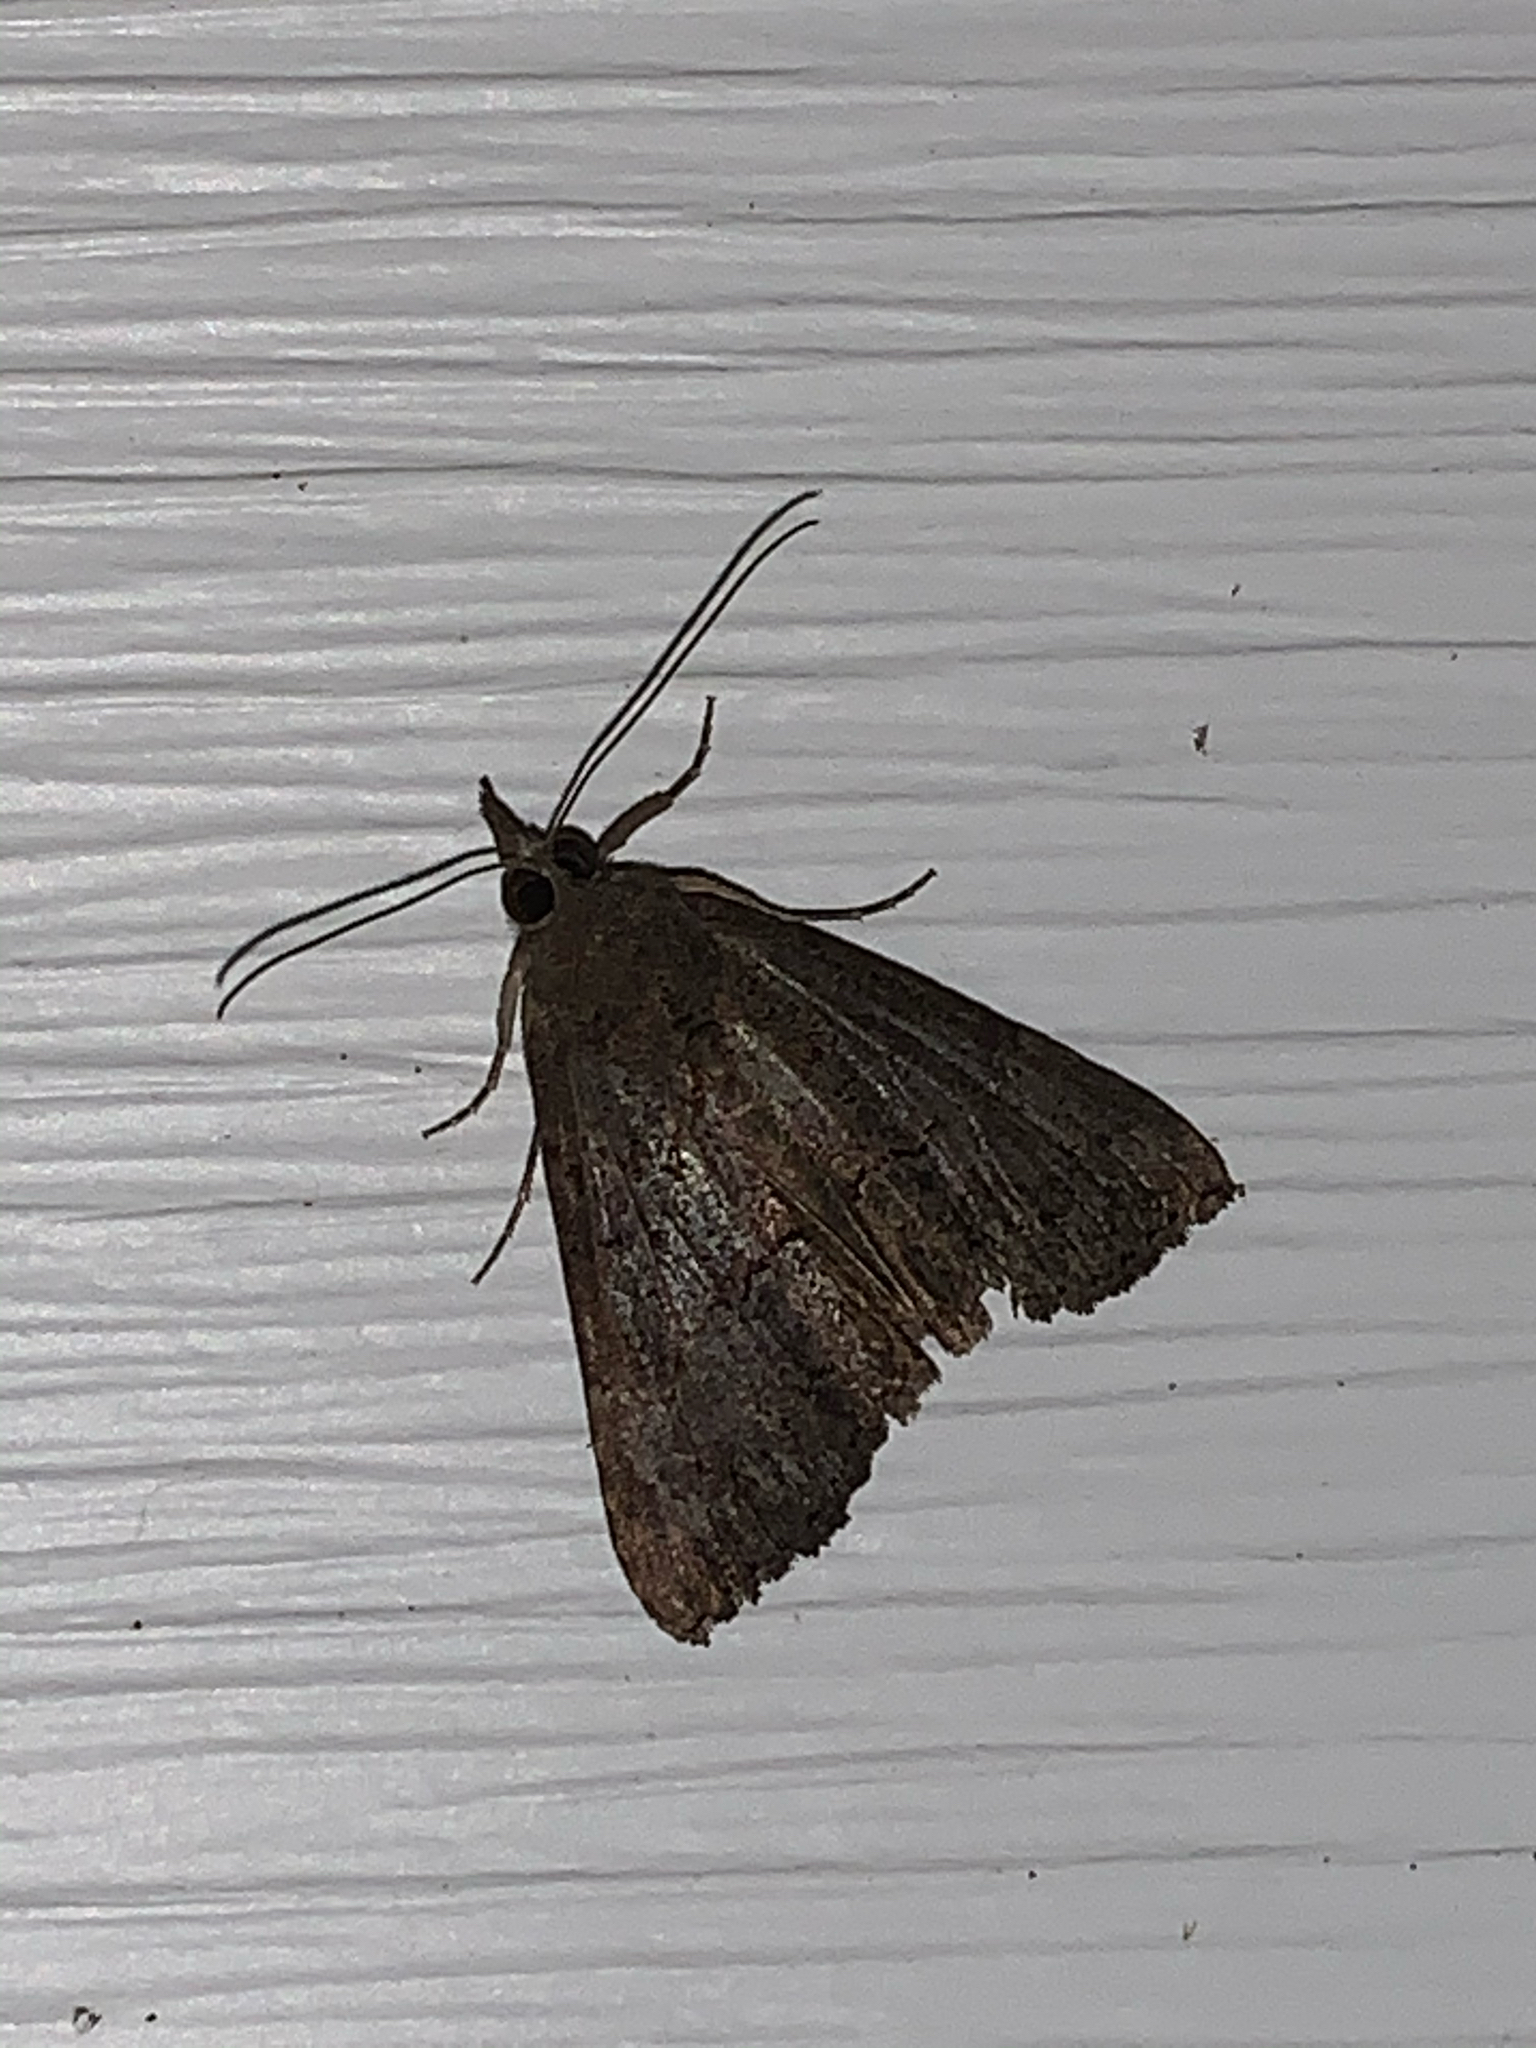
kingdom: Animalia
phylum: Arthropoda
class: Insecta
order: Lepidoptera
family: Erebidae
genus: Hypena
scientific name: Hypena scabra
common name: Green cloverworm
